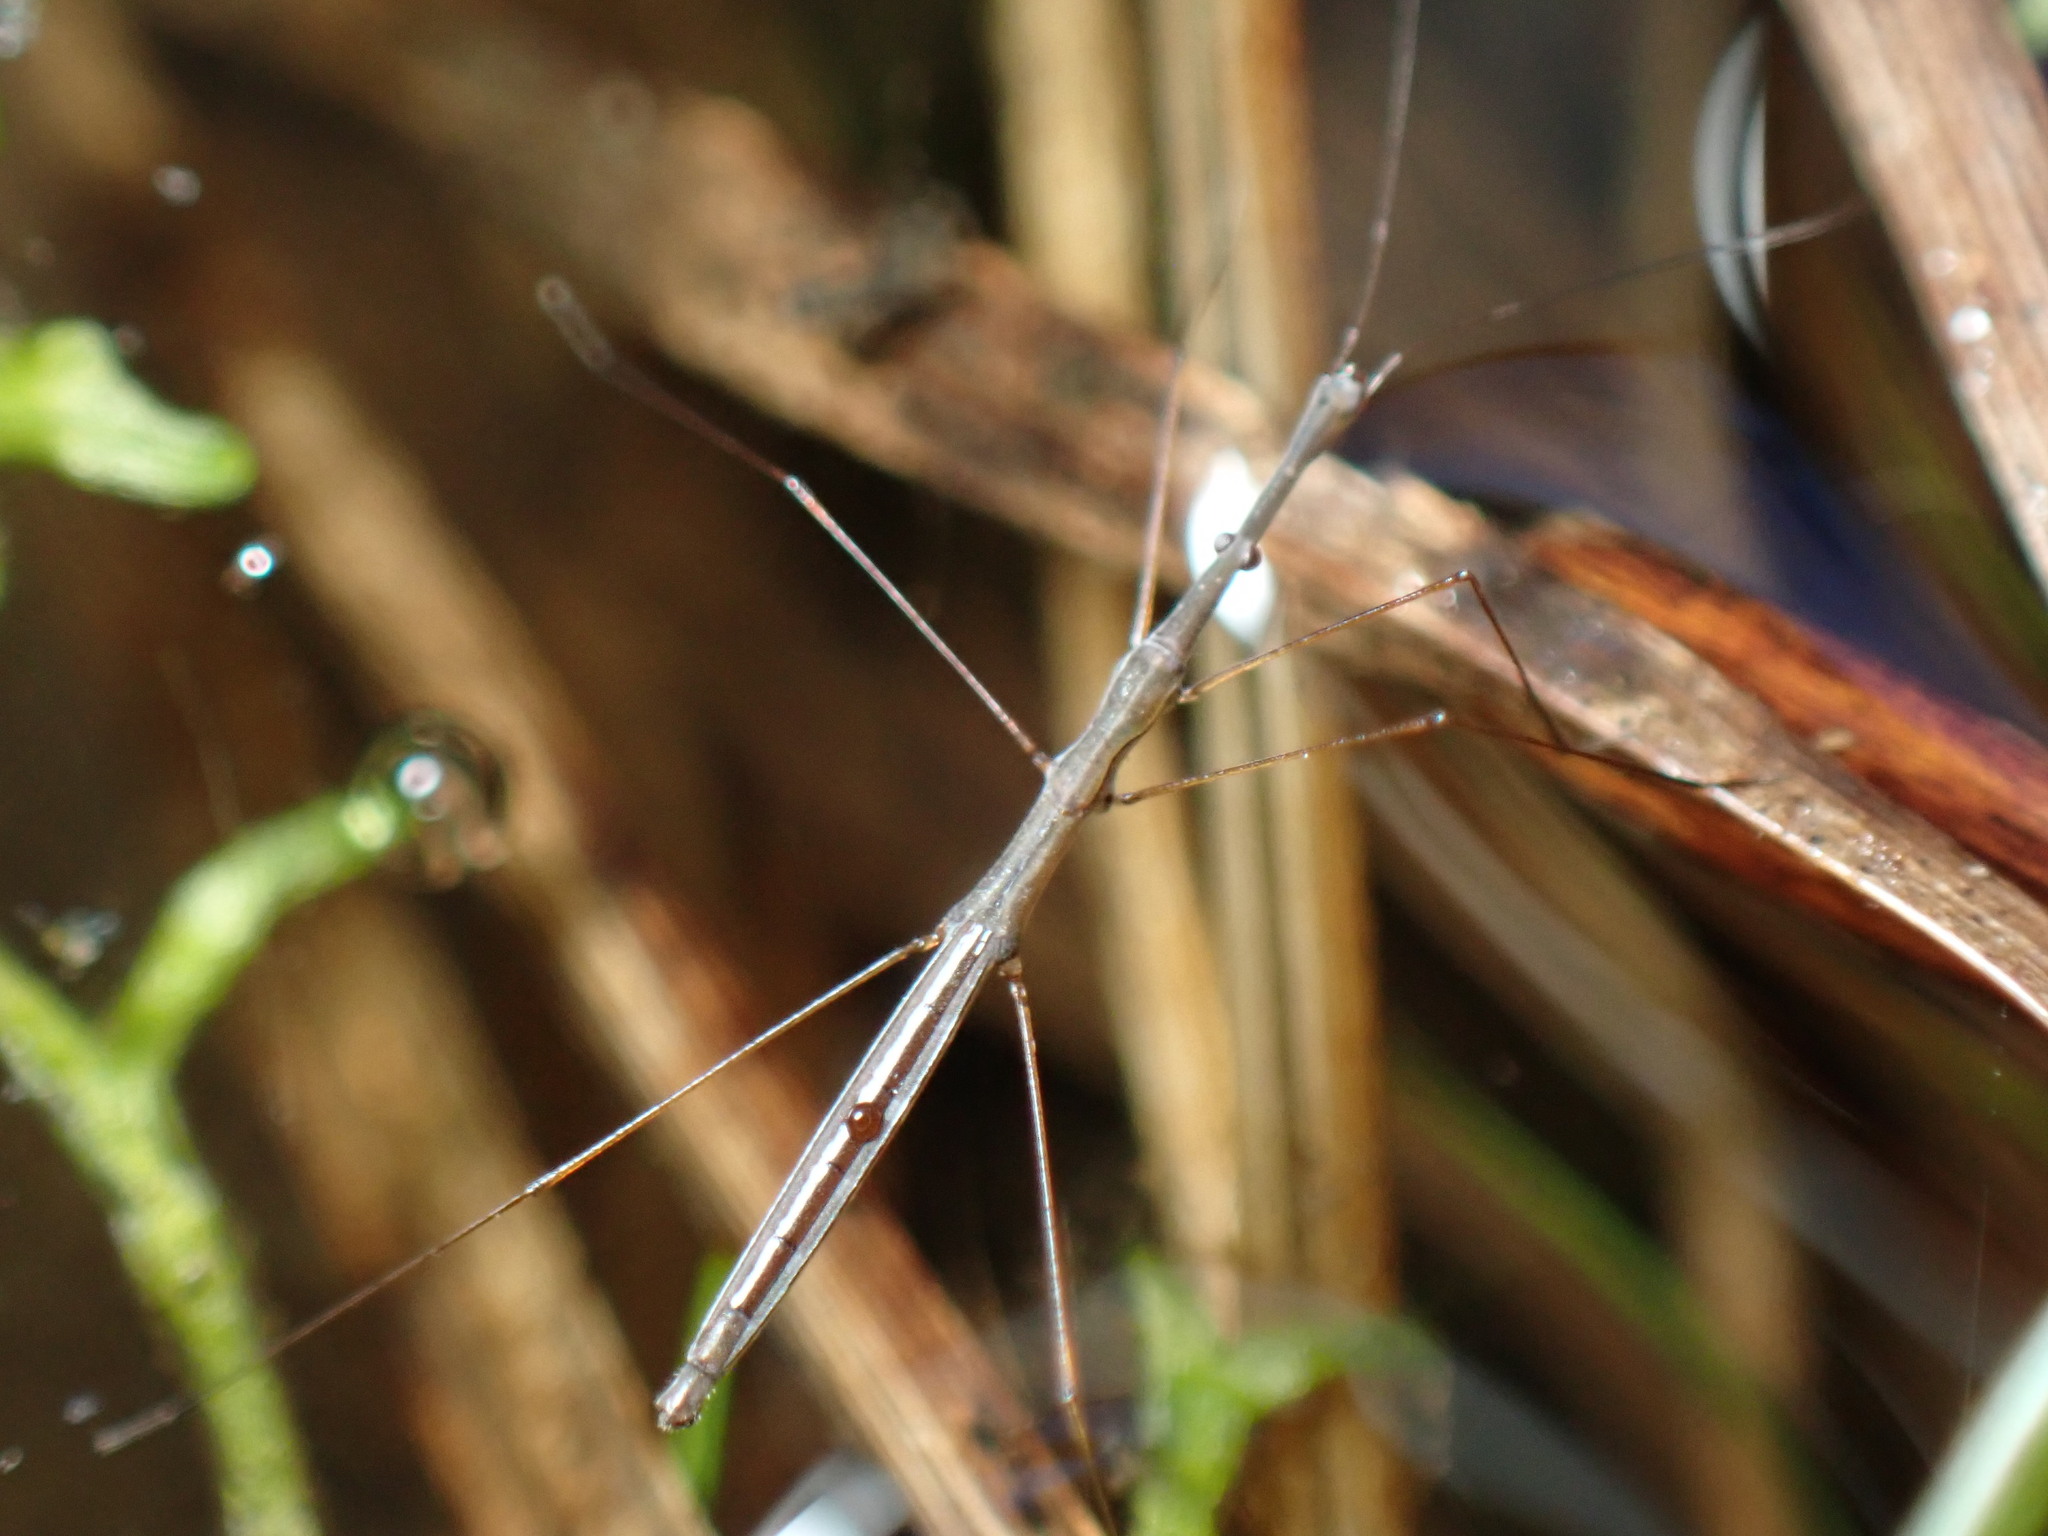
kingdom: Animalia
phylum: Arthropoda
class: Insecta
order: Hemiptera
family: Hydrometridae
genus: Hydrometra
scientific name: Hydrometra
